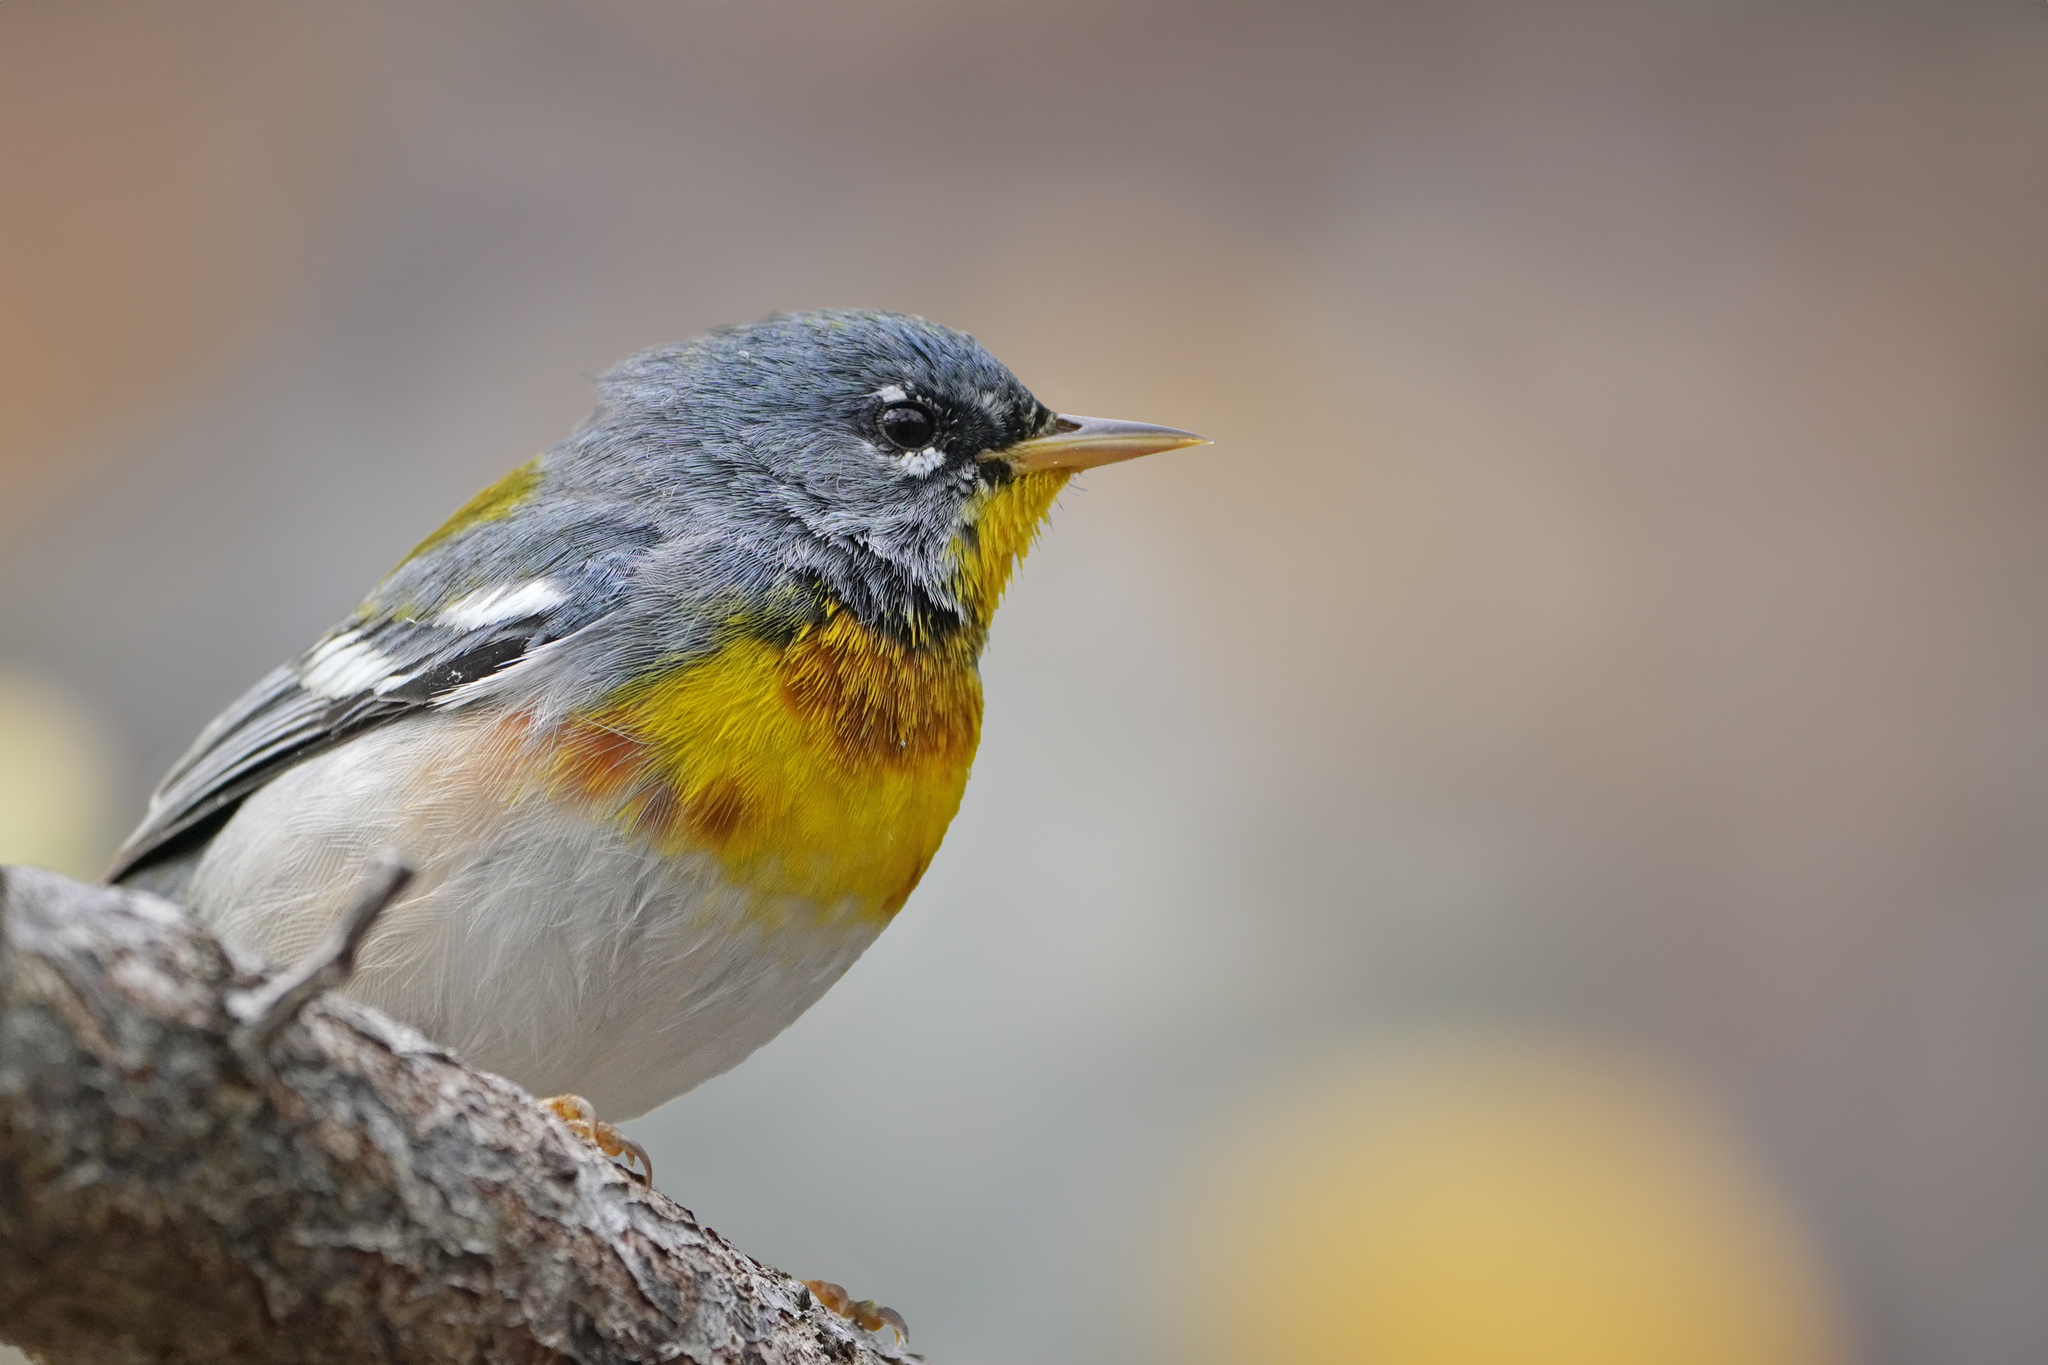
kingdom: Animalia
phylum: Chordata
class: Aves
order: Passeriformes
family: Parulidae
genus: Setophaga
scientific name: Setophaga americana
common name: Northern parula
